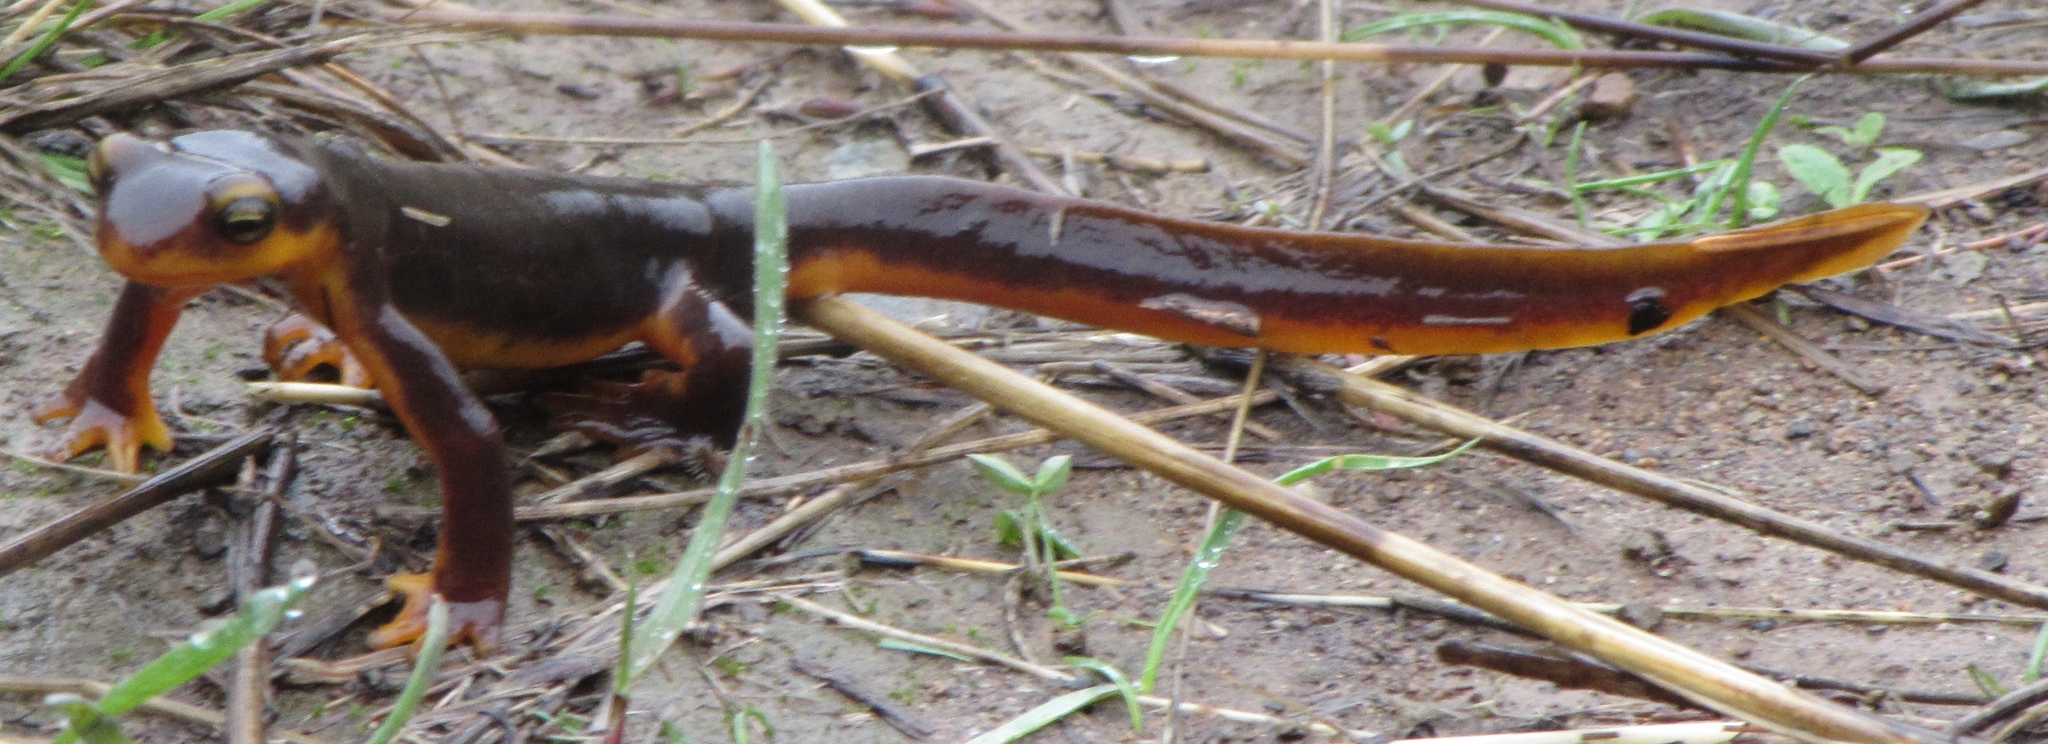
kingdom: Animalia
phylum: Chordata
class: Amphibia
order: Caudata
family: Salamandridae
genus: Taricha
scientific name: Taricha torosa
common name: California newt
